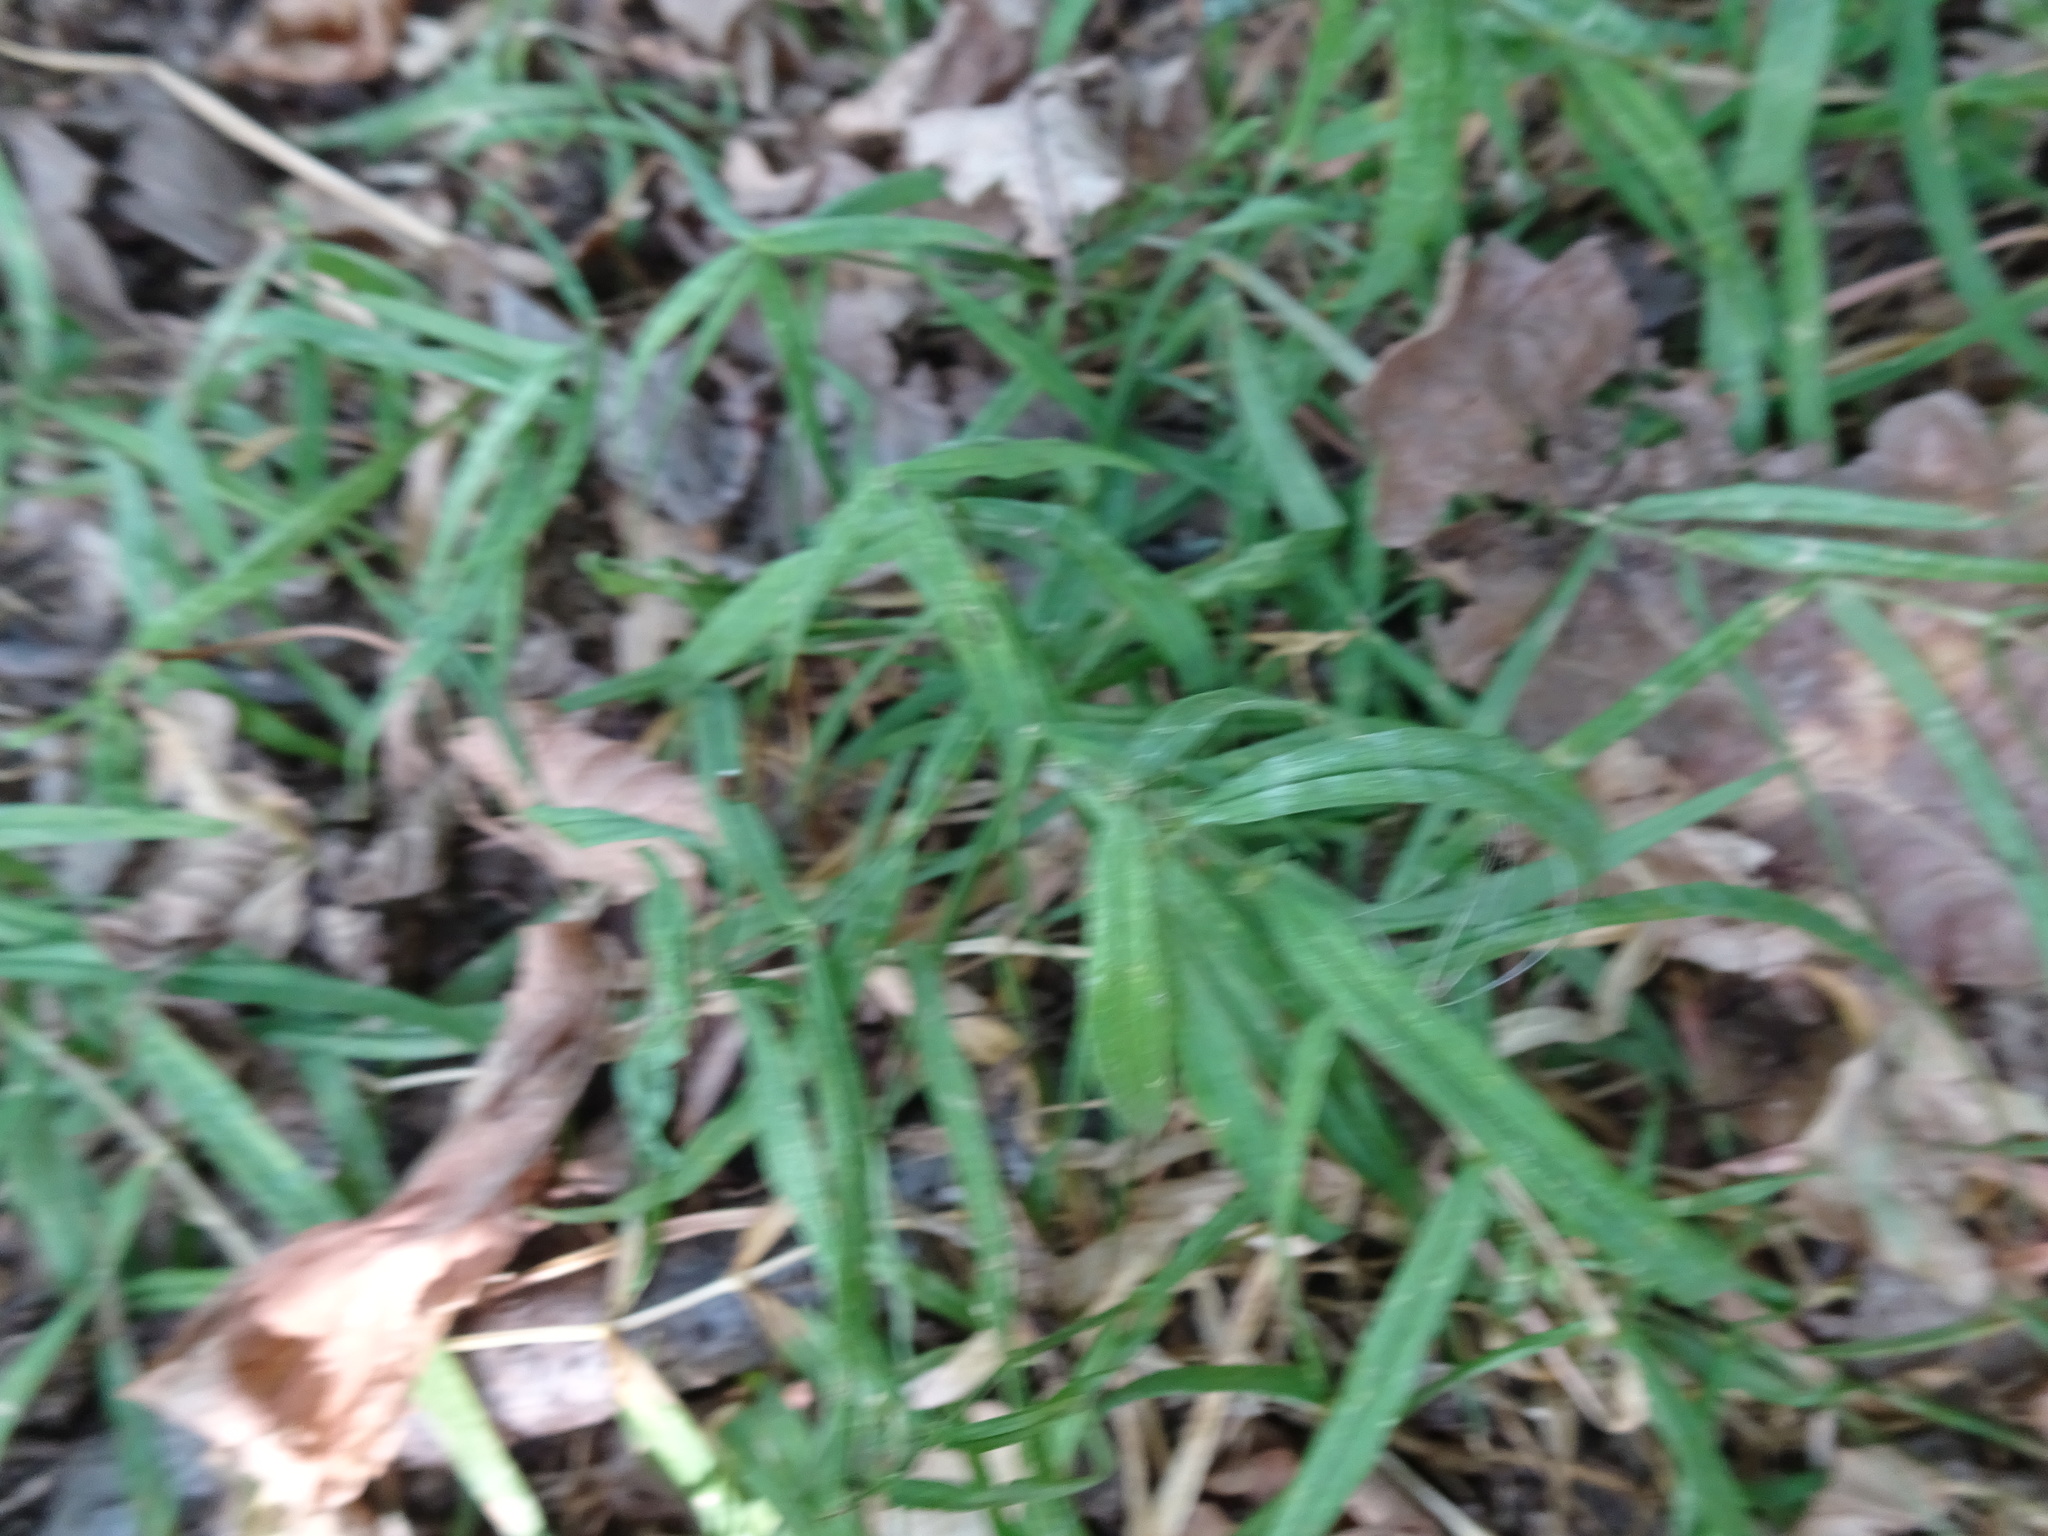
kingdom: Plantae
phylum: Tracheophyta
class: Magnoliopsida
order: Caryophyllales
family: Caryophyllaceae
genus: Rabelera
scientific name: Rabelera holostea
